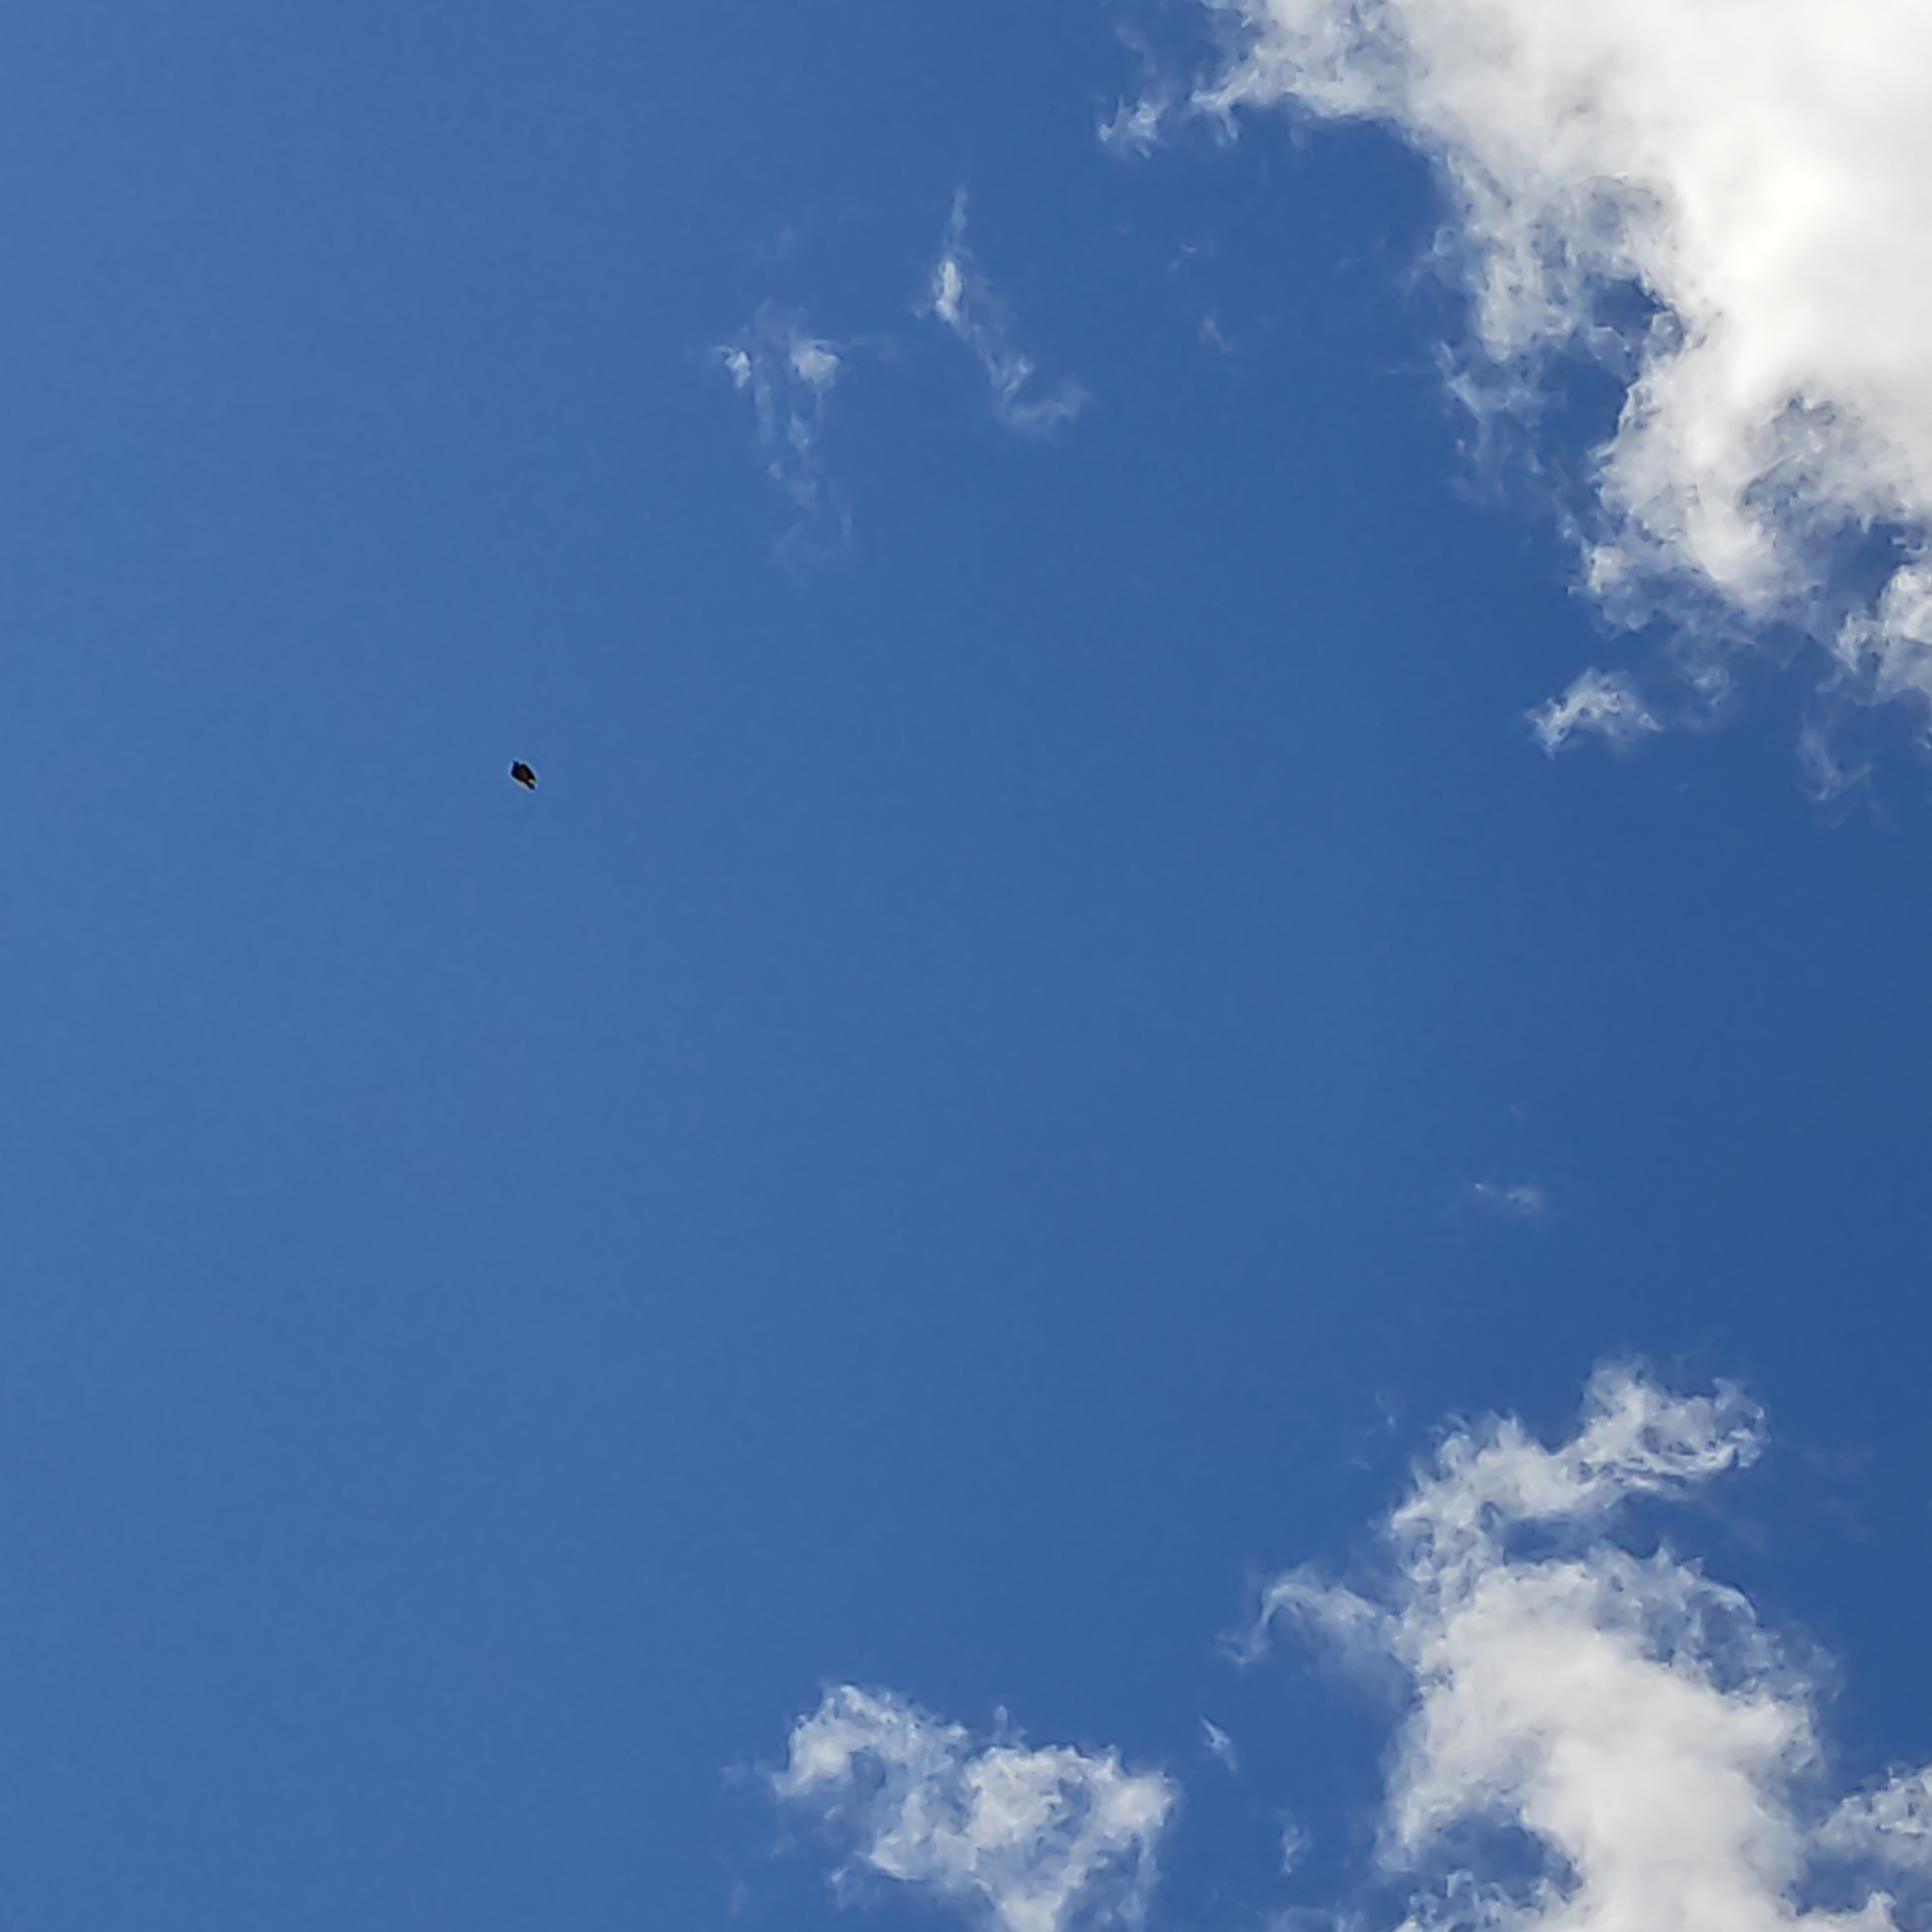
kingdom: Animalia
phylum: Chordata
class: Aves
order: Passeriformes
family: Alaudidae
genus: Alauda
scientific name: Alauda arvensis
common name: Eurasian skylark
